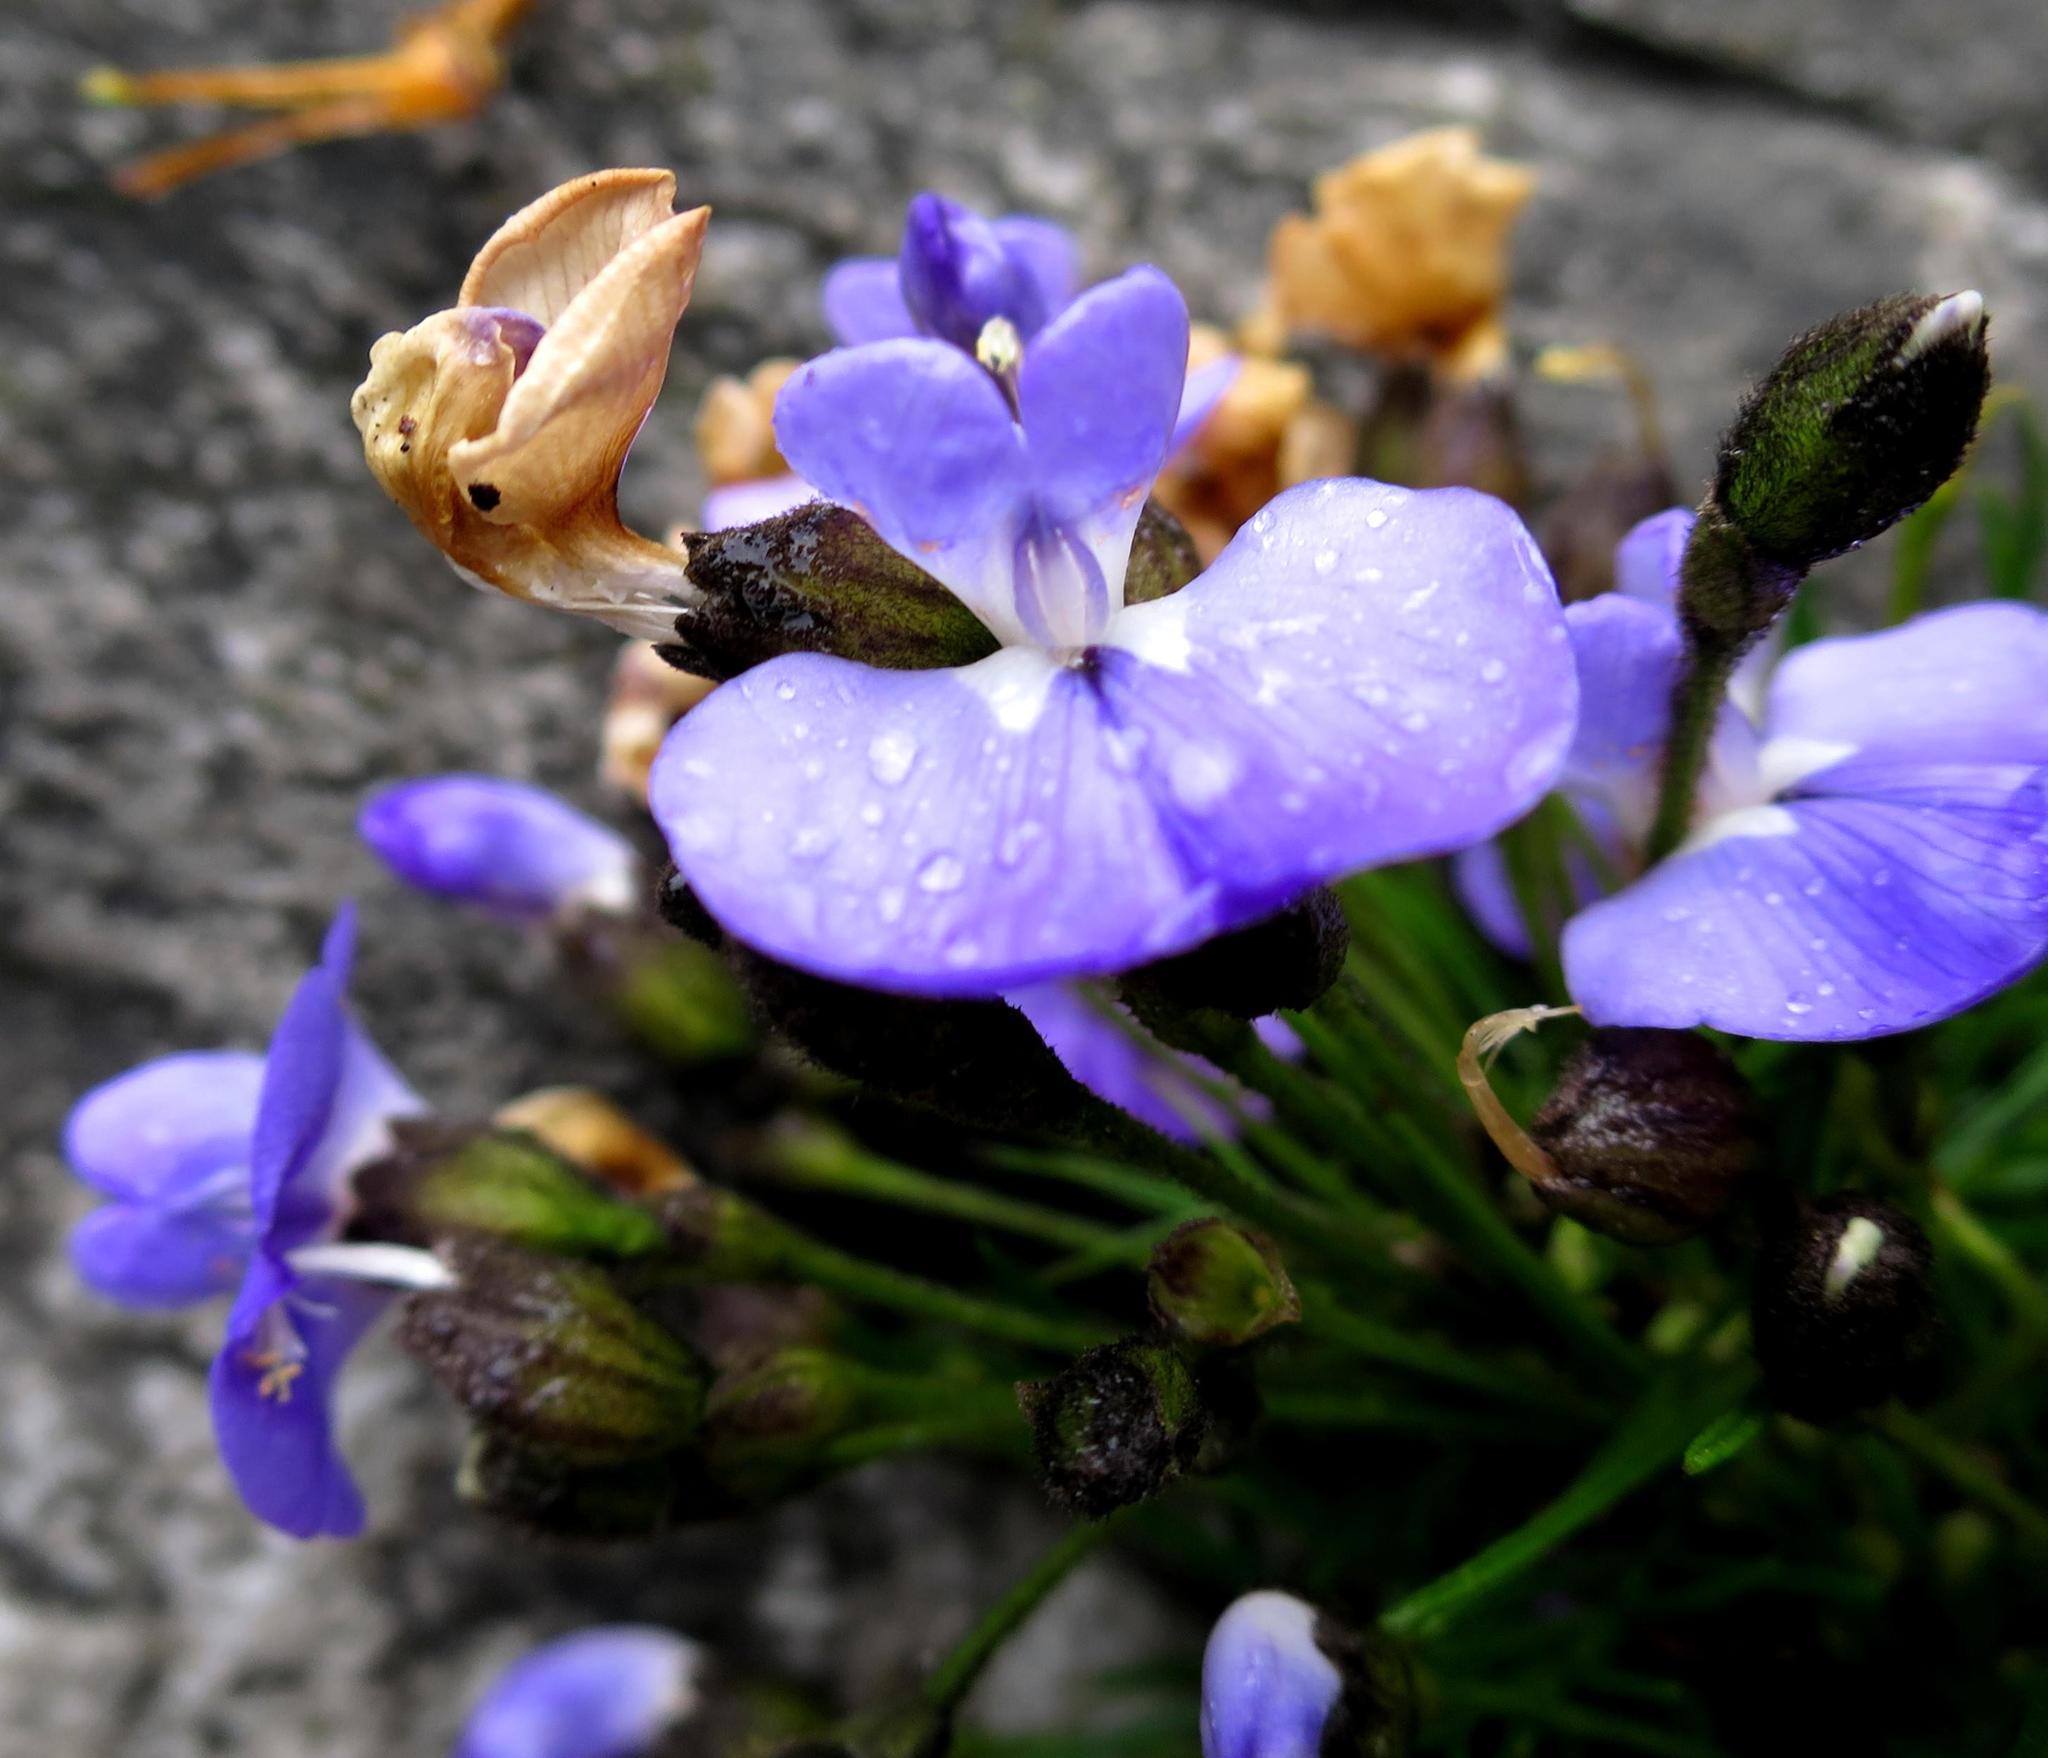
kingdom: Plantae
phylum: Tracheophyta
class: Magnoliopsida
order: Fabales
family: Fabaceae
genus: Psoralea
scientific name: Psoralea affinis
